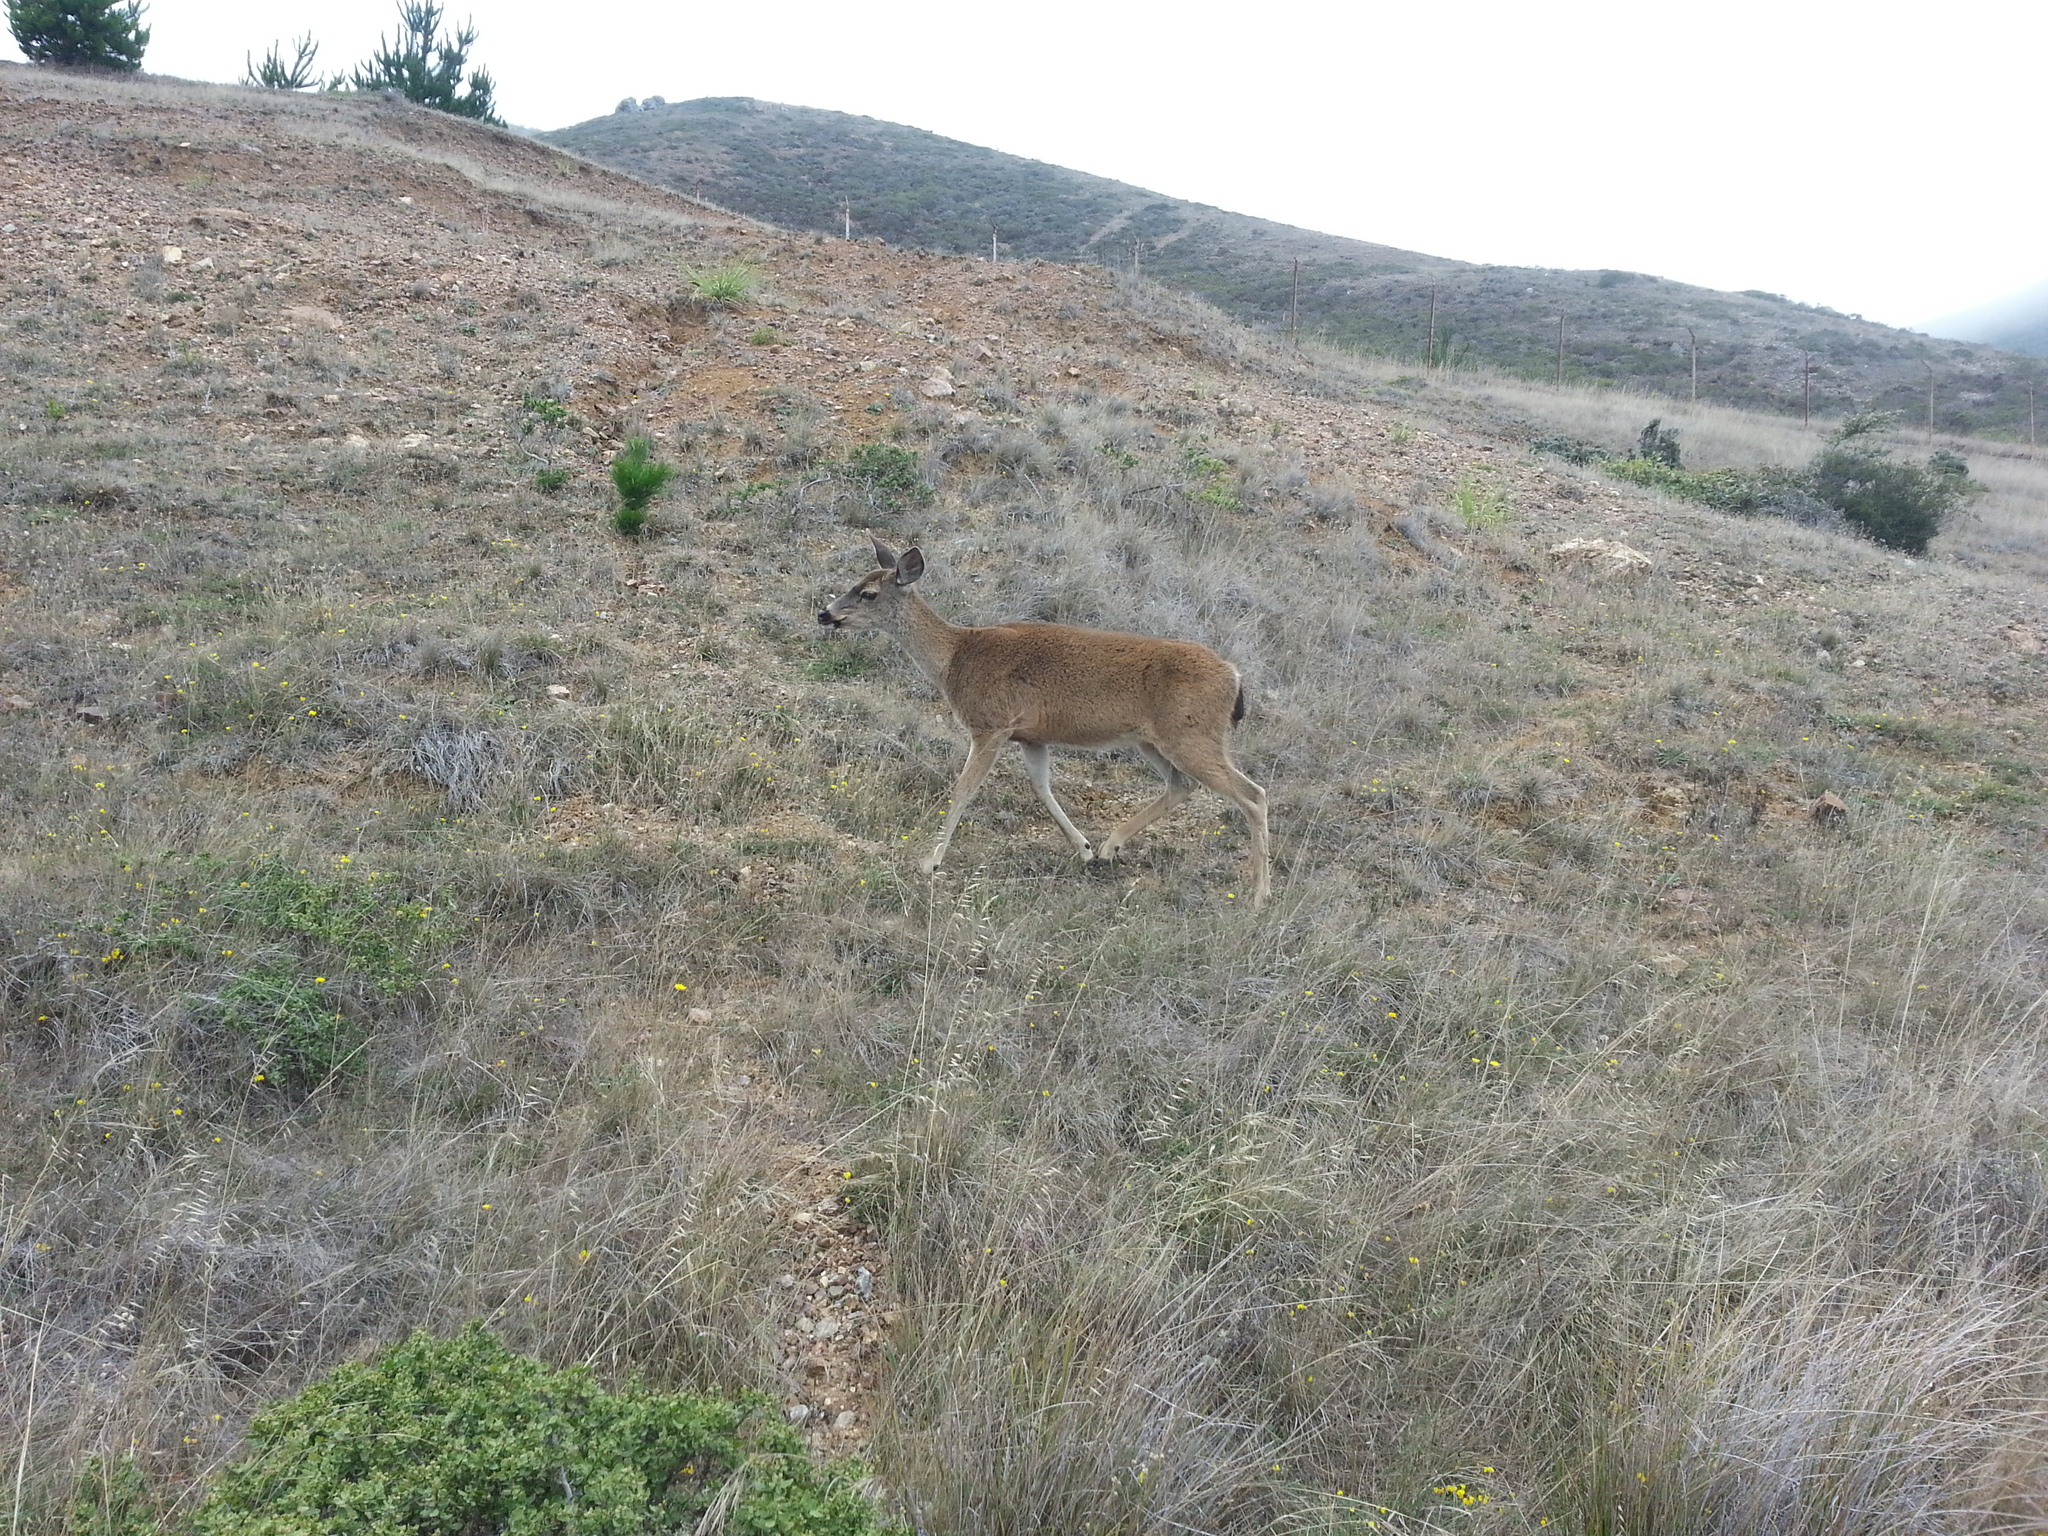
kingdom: Animalia
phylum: Chordata
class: Mammalia
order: Artiodactyla
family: Cervidae
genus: Odocoileus
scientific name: Odocoileus hemionus
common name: Mule deer
